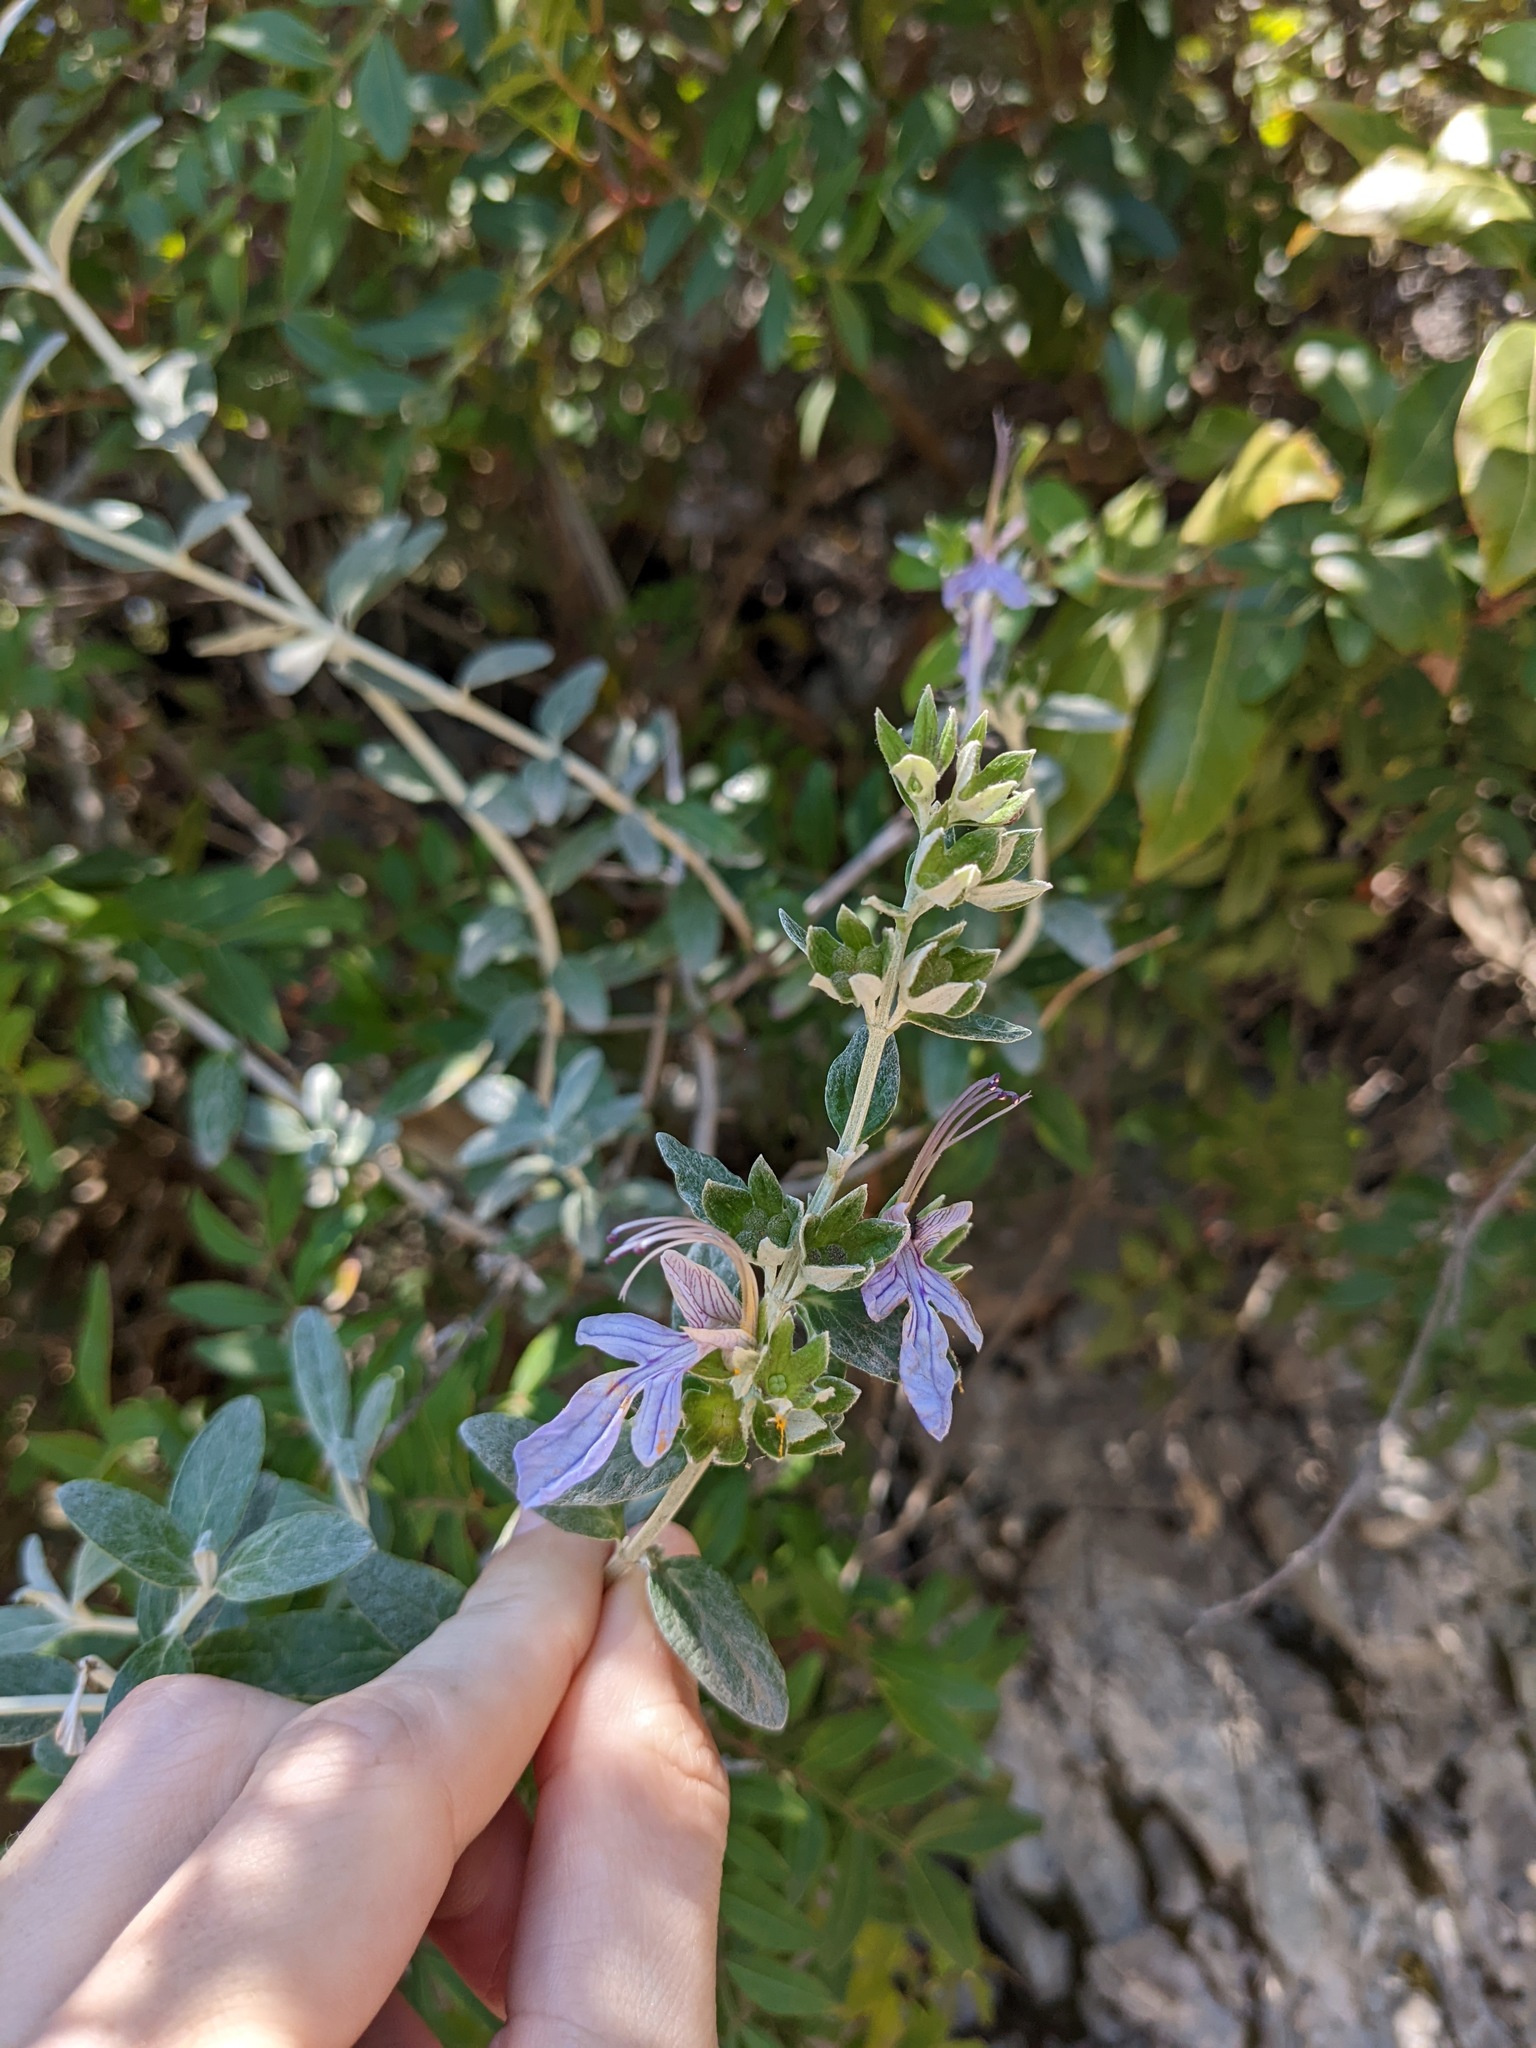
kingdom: Plantae
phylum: Tracheophyta
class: Magnoliopsida
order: Lamiales
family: Lamiaceae
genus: Teucrium
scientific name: Teucrium fruticans
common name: Shrubby germander
